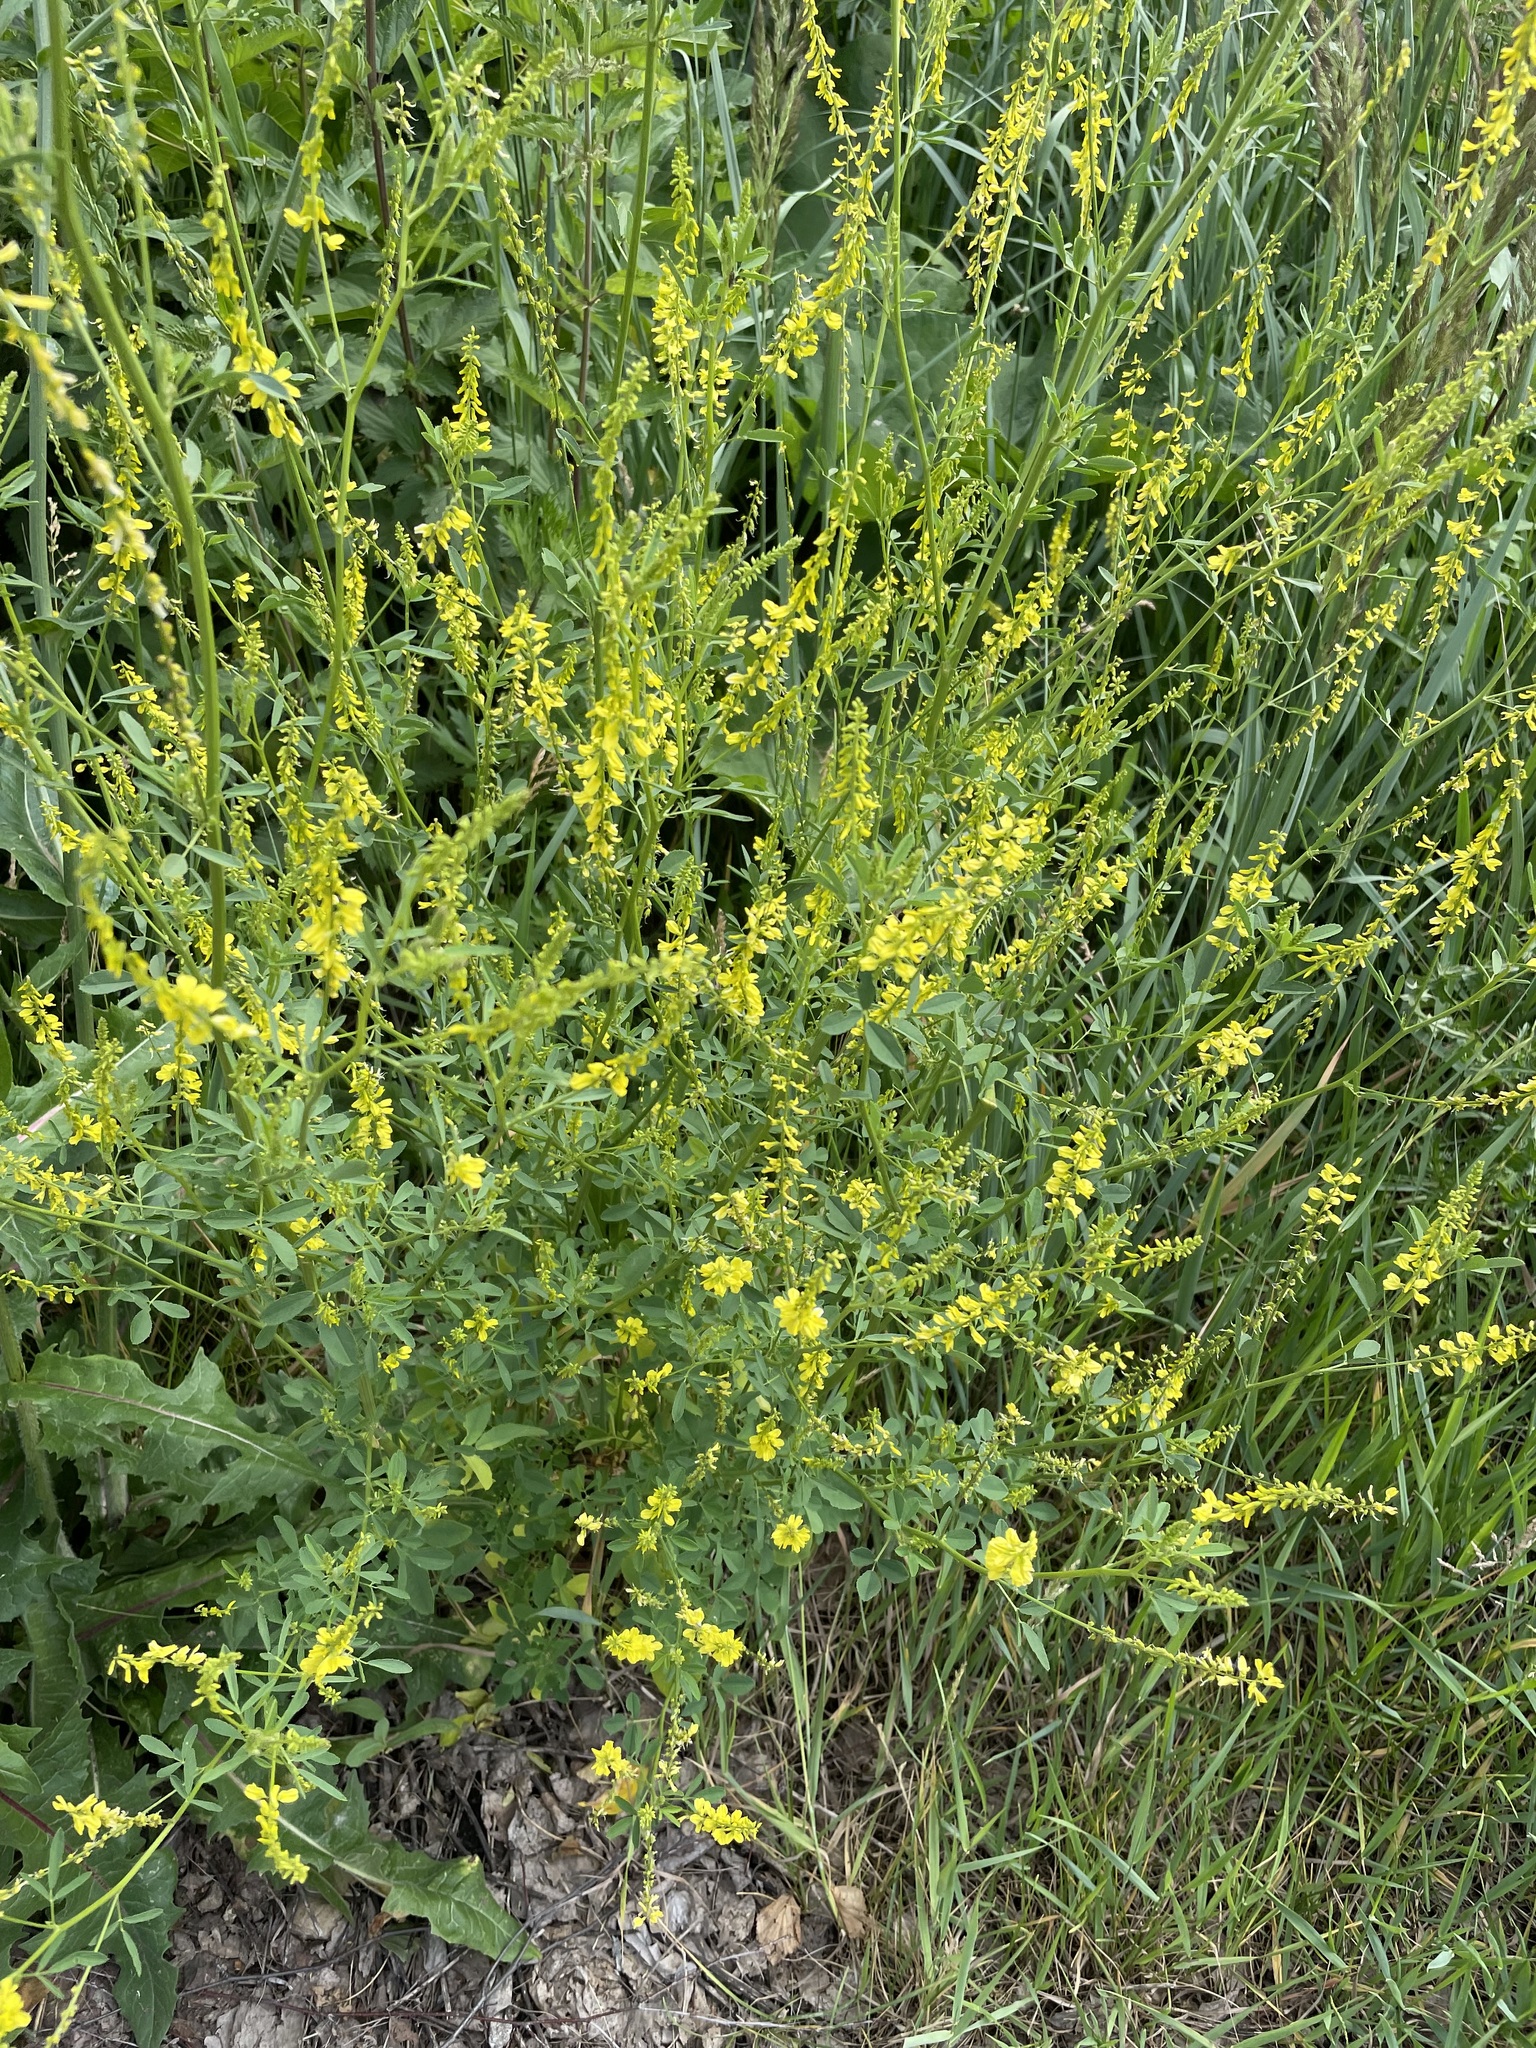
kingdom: Plantae
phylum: Tracheophyta
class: Magnoliopsida
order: Fabales
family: Fabaceae
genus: Melilotus
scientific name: Melilotus officinalis
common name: Sweetclover
